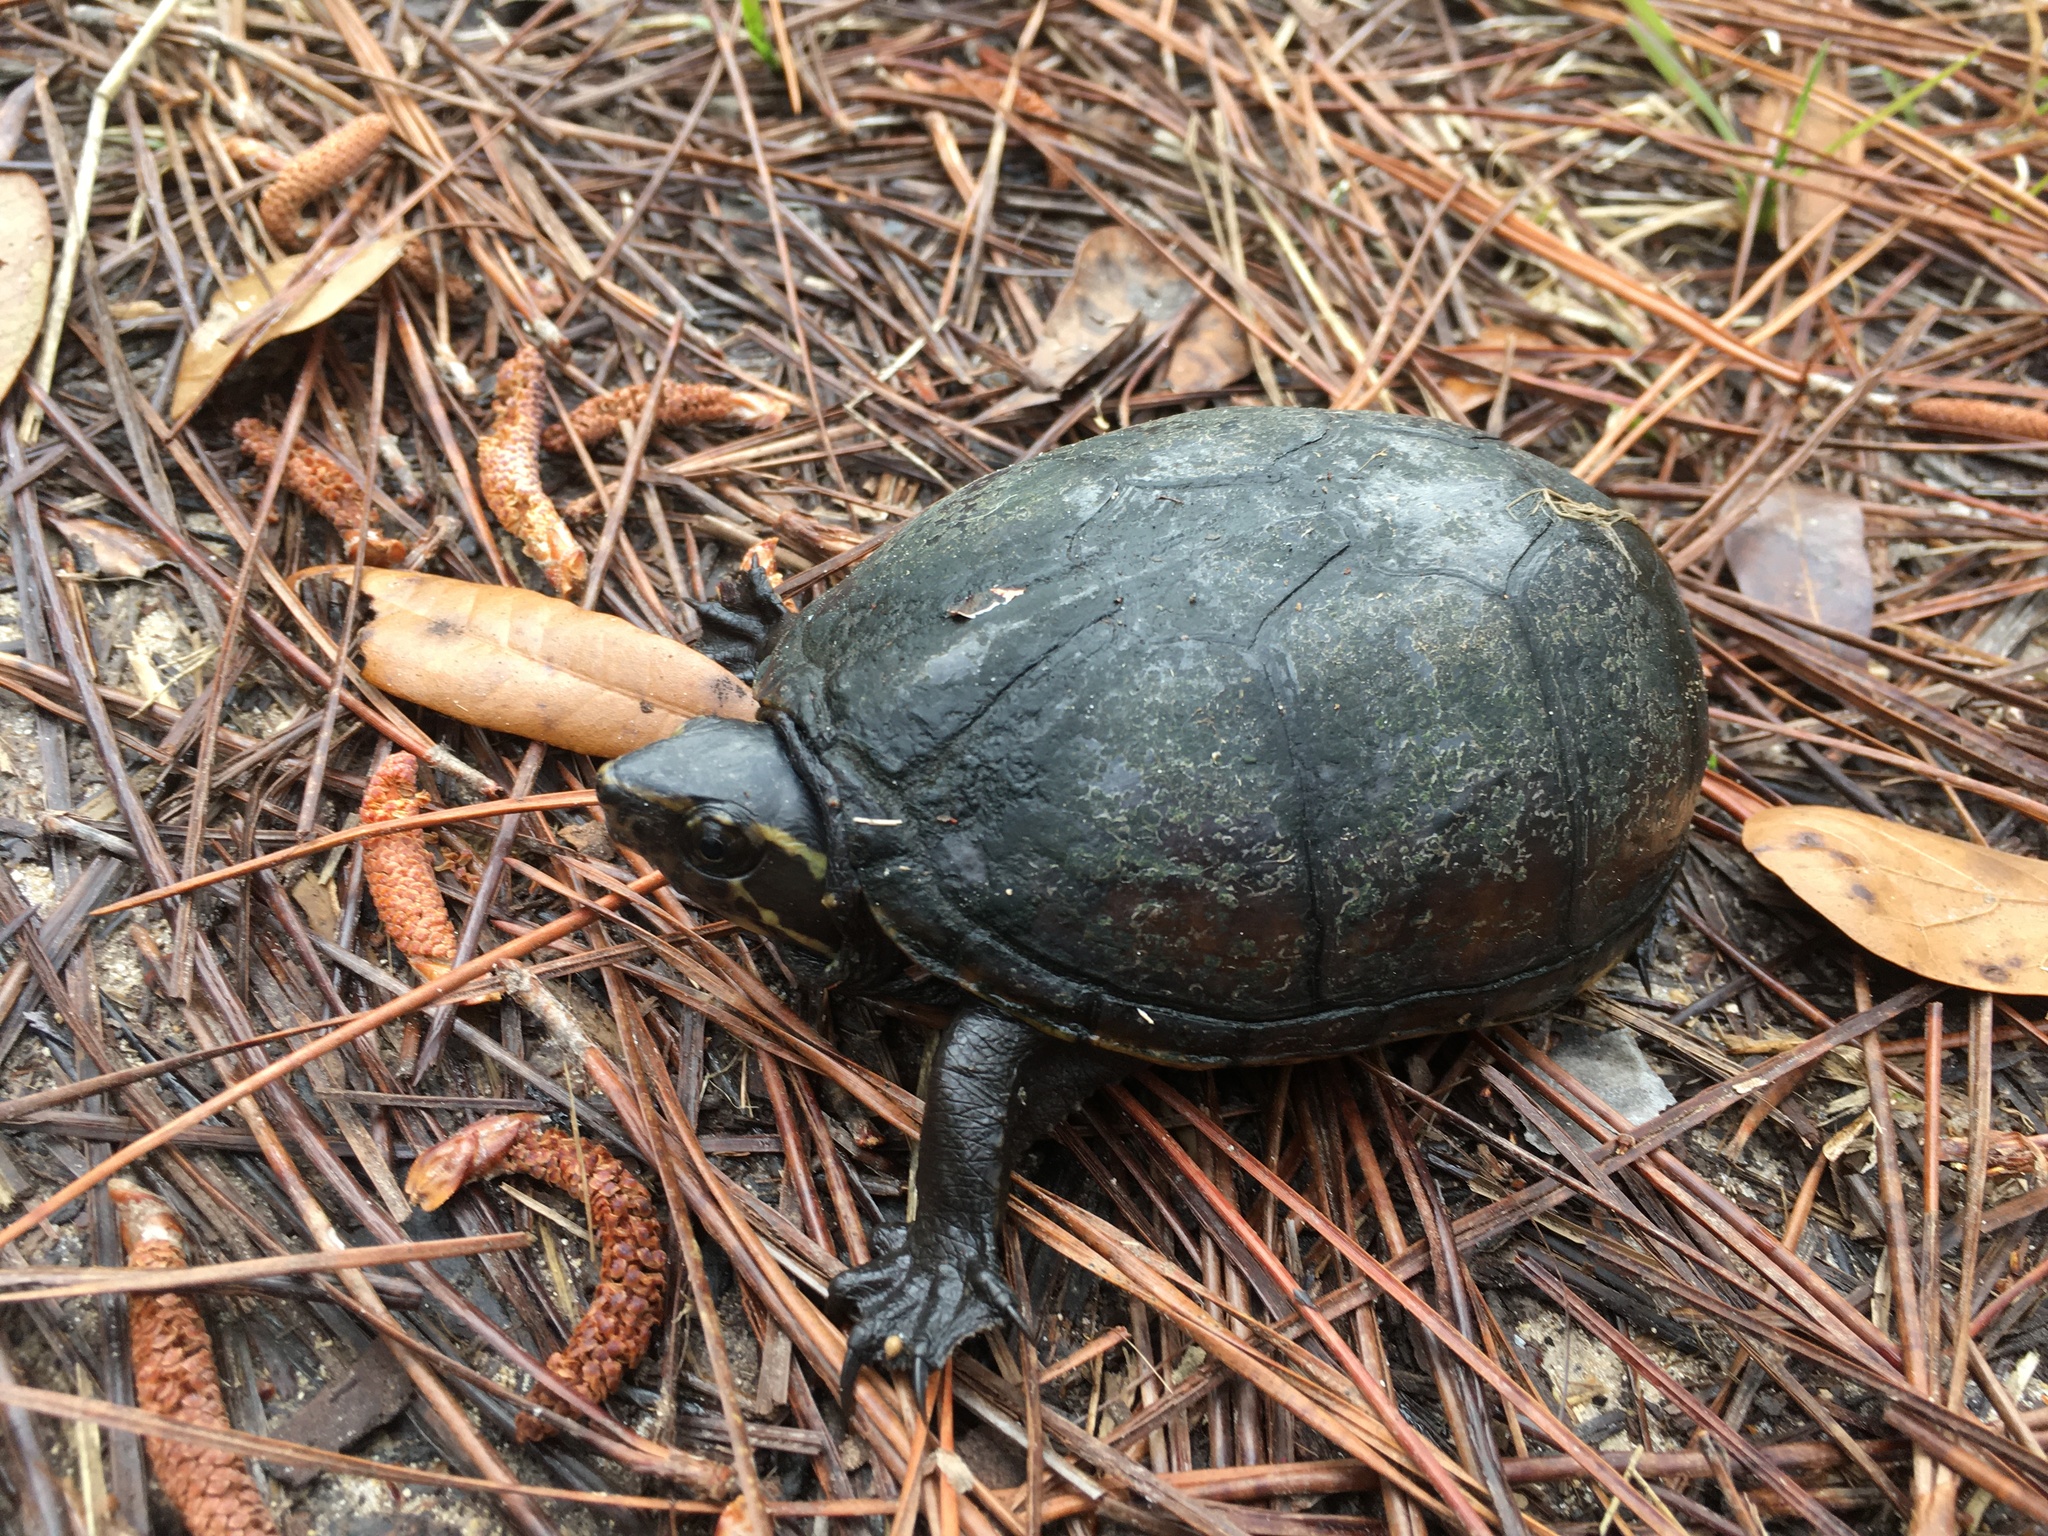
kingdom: Animalia
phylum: Chordata
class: Testudines
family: Kinosternidae
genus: Kinosternon
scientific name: Kinosternon baurii
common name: Striped mud turtle
